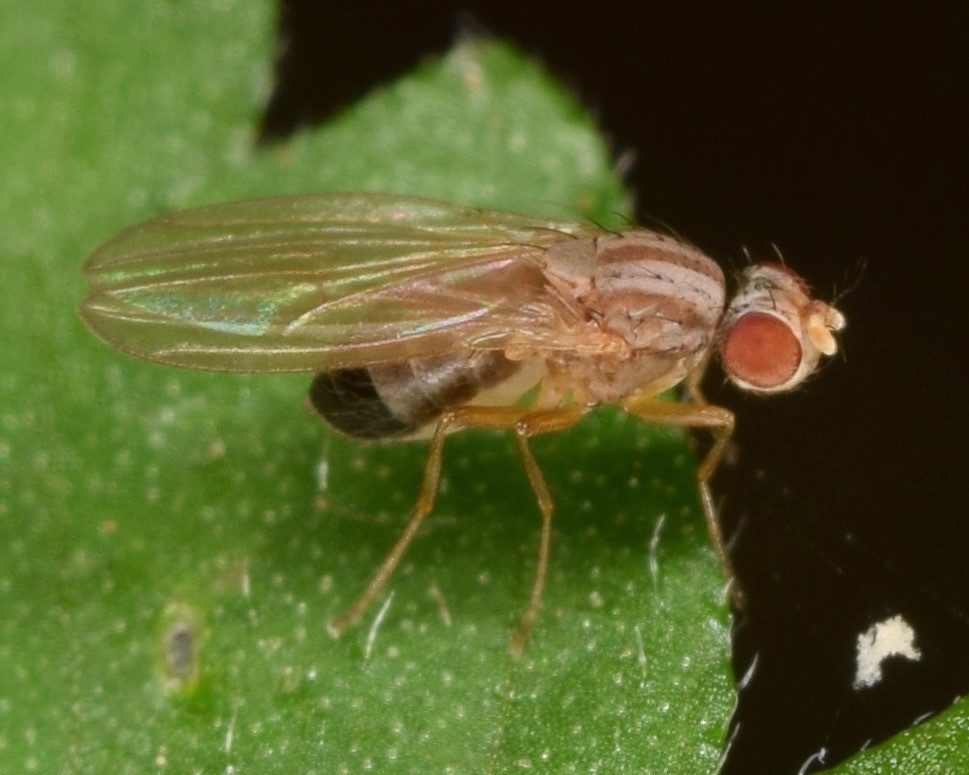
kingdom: Animalia
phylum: Arthropoda
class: Insecta
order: Diptera
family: Drosophilidae
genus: Scaptomyza
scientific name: Scaptomyza
